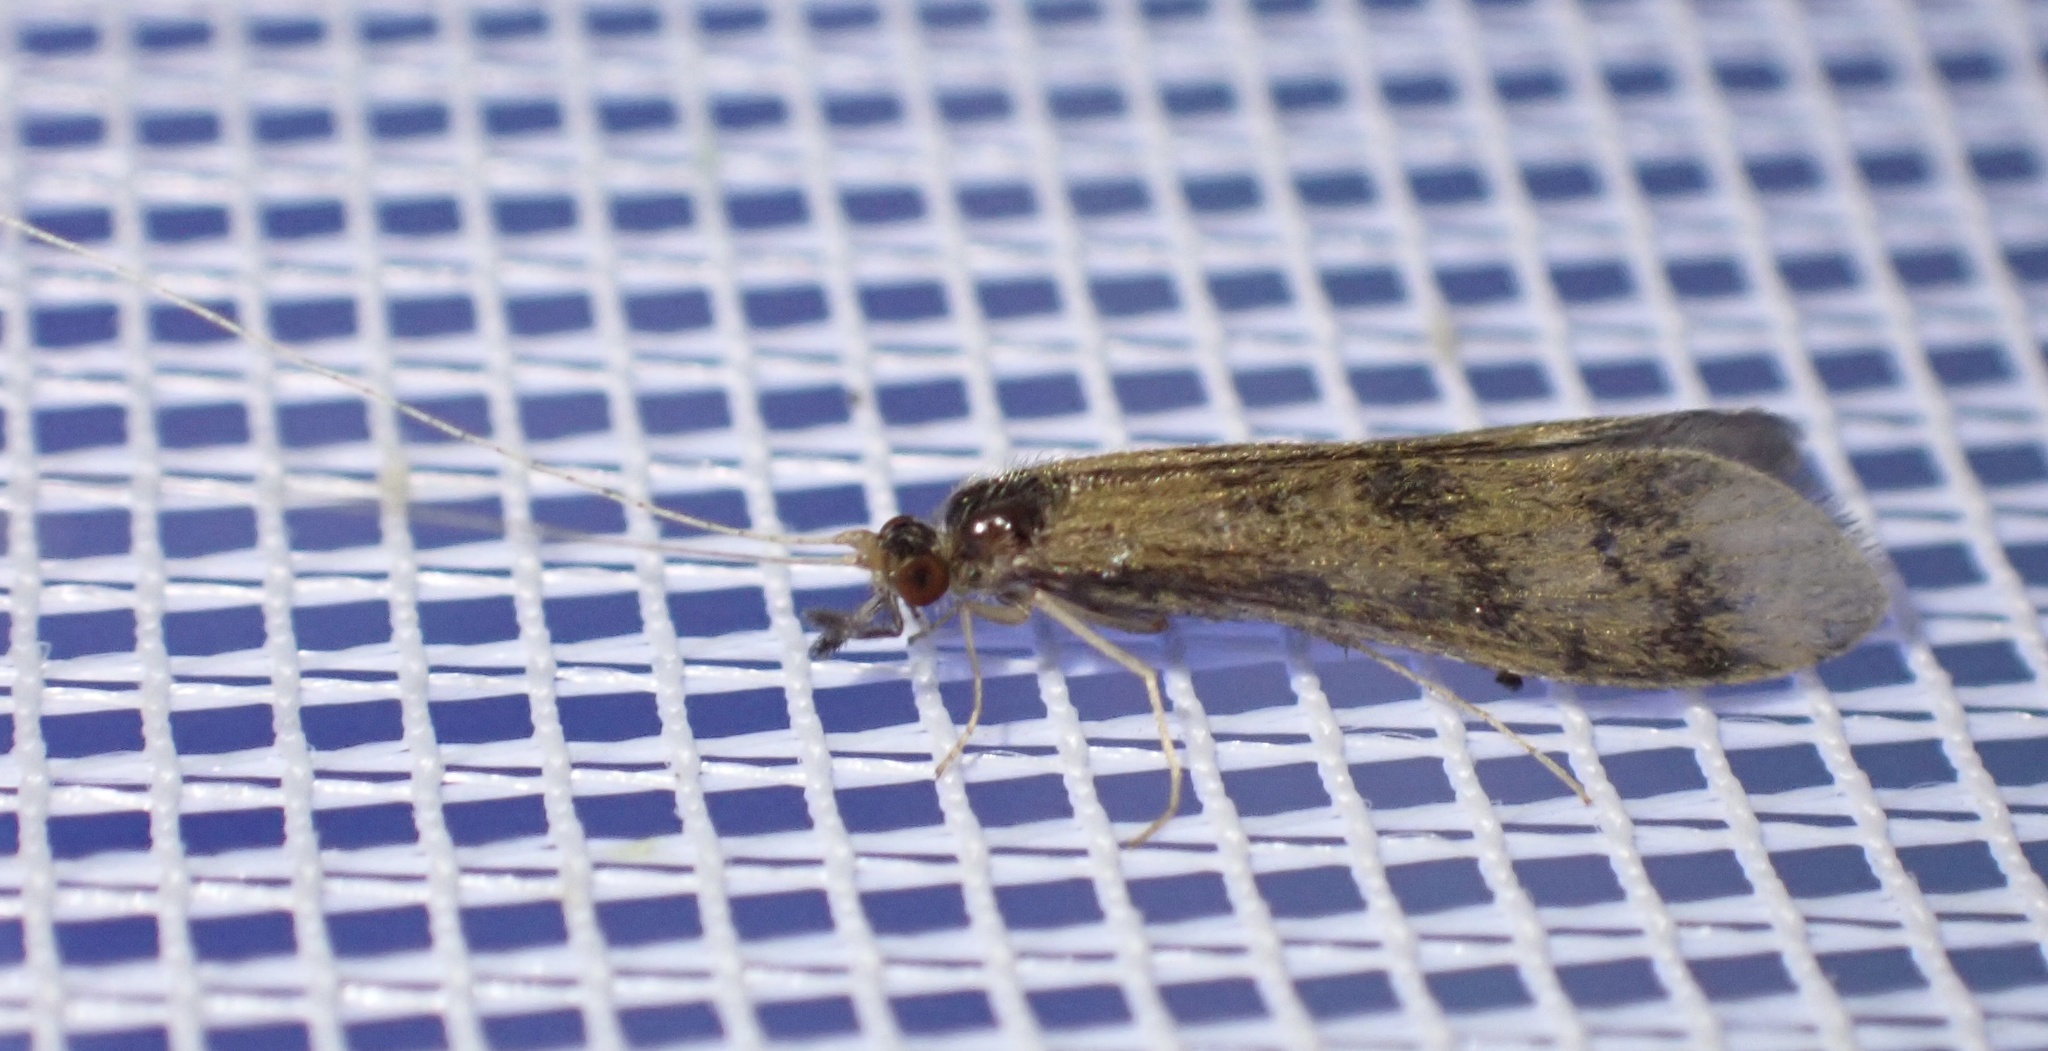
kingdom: Animalia
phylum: Arthropoda
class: Insecta
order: Trichoptera
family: Leptoceridae
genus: Mystacides
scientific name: Mystacides longicornis
